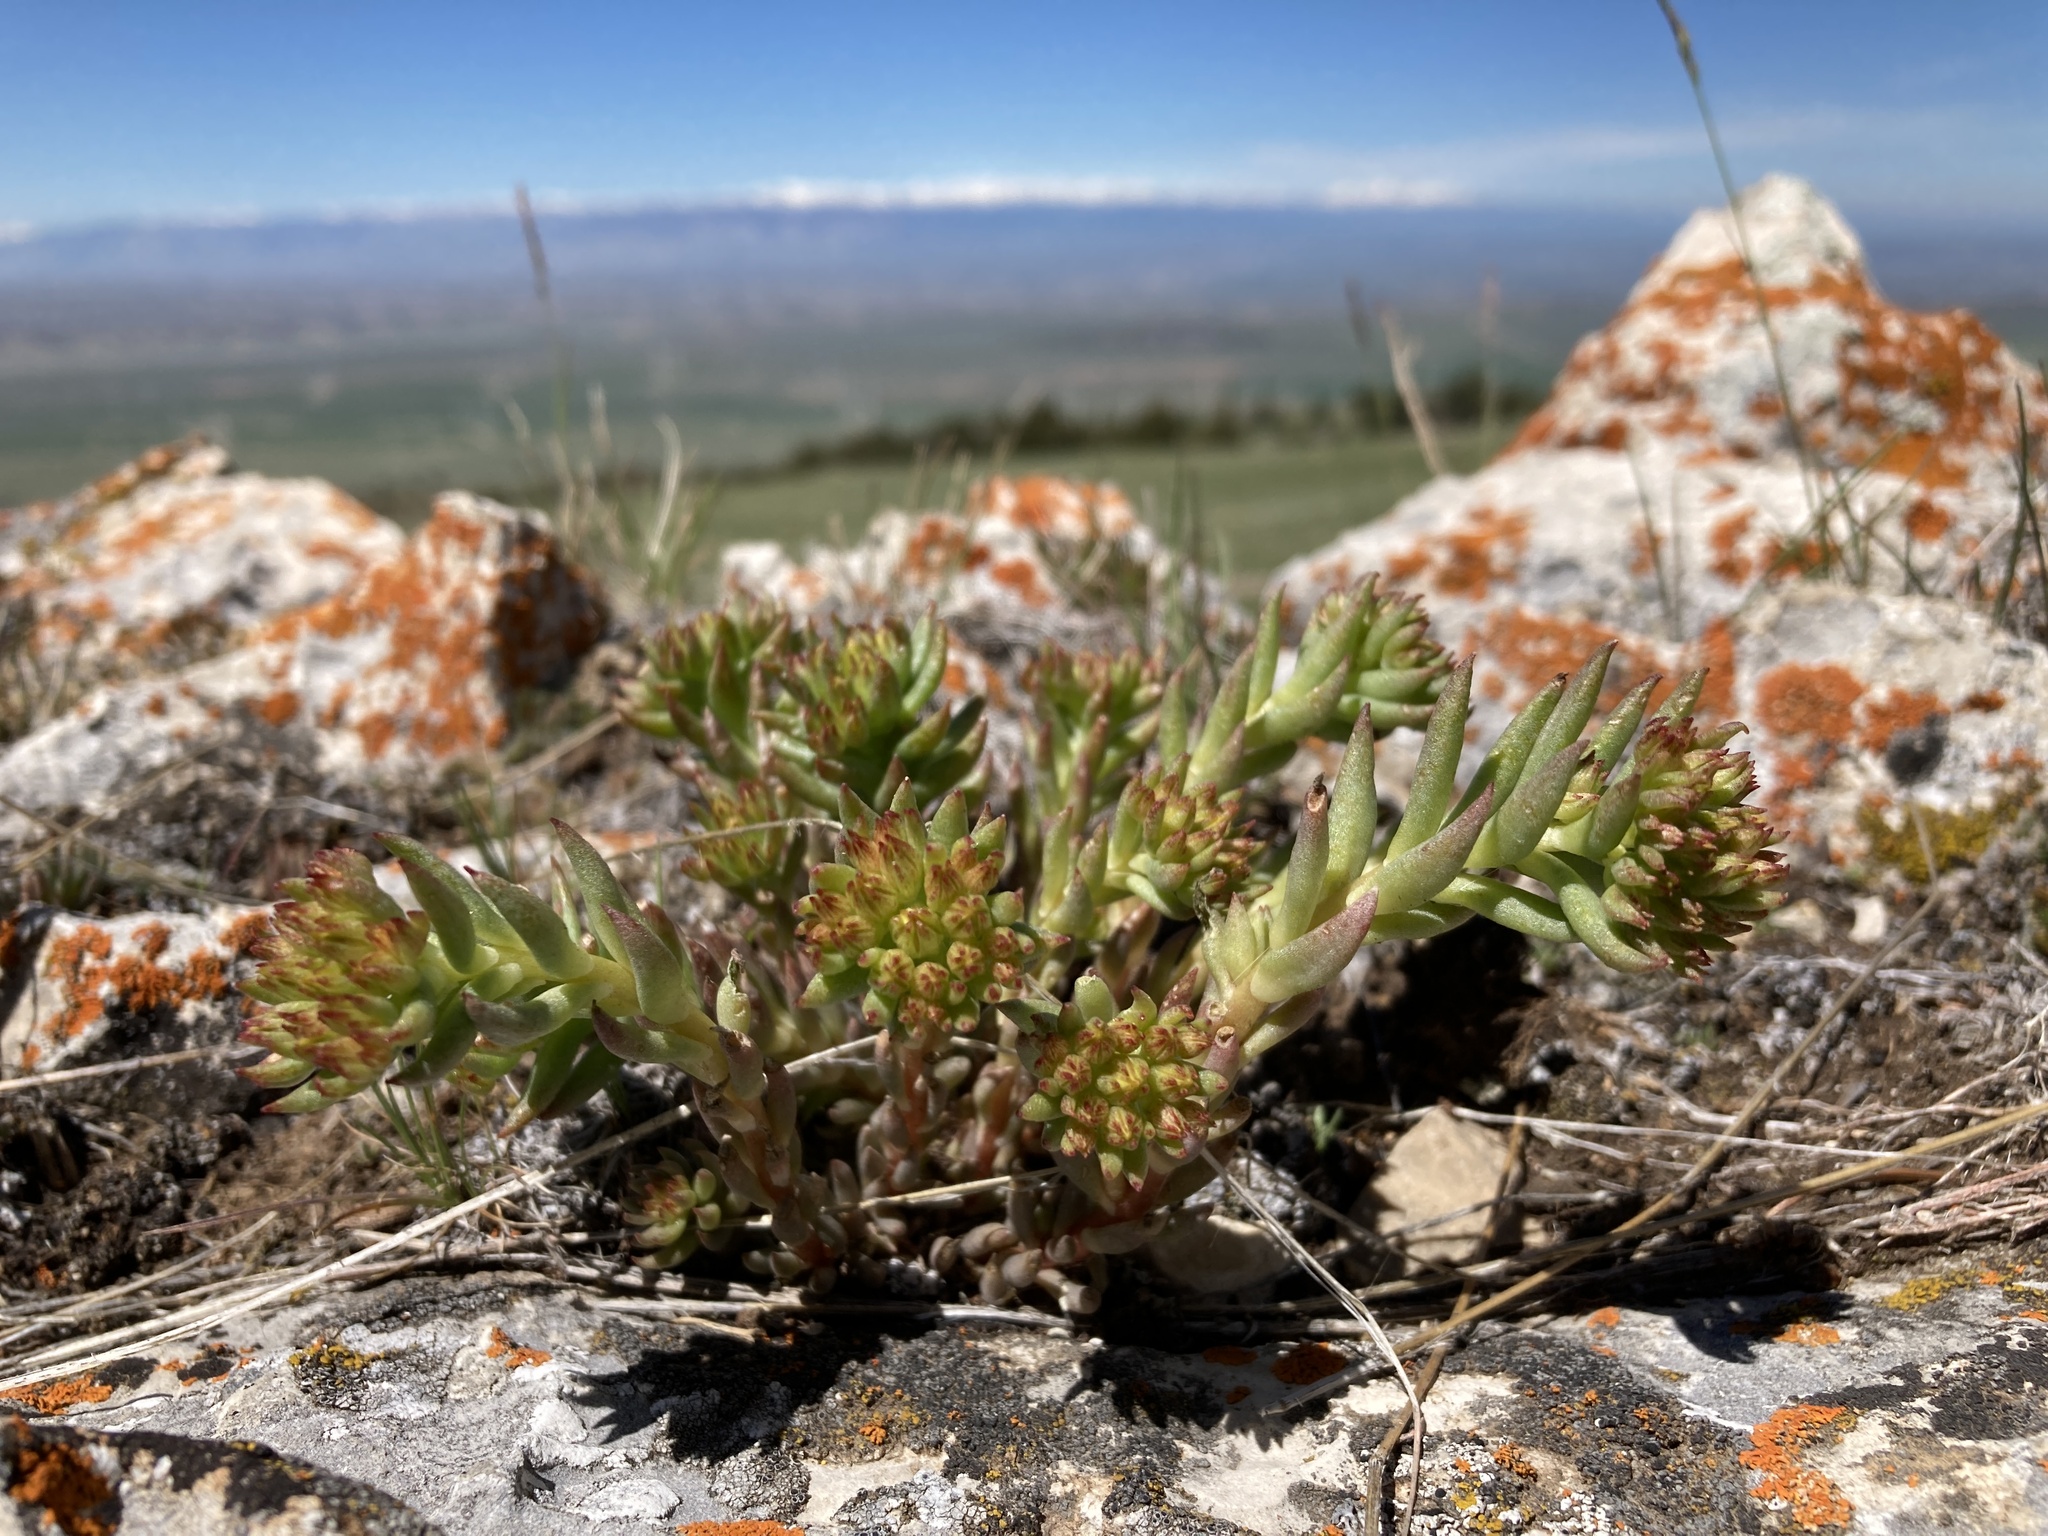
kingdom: Plantae
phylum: Tracheophyta
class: Magnoliopsida
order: Saxifragales
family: Crassulaceae
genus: Sedum
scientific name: Sedum lanceolatum
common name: Common stonecrop
